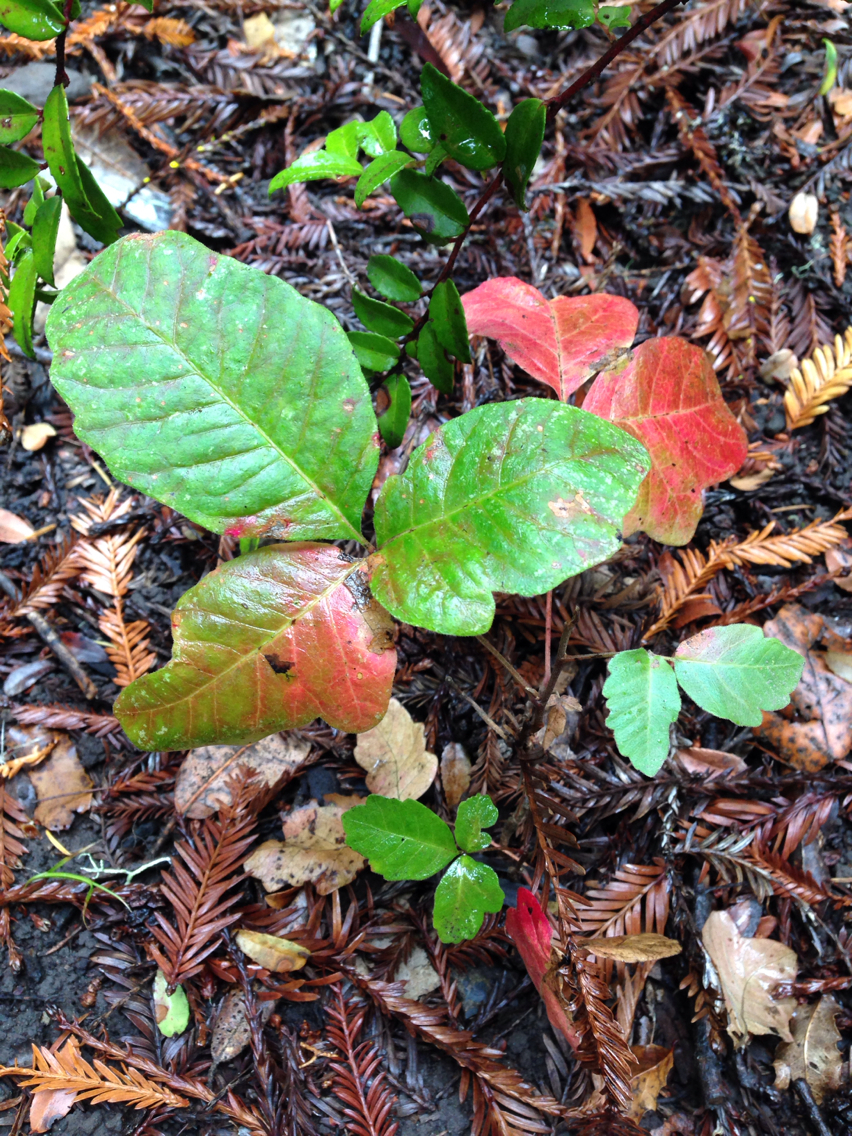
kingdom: Plantae
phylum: Tracheophyta
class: Magnoliopsida
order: Sapindales
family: Anacardiaceae
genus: Toxicodendron
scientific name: Toxicodendron diversilobum
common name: Pacific poison-oak
